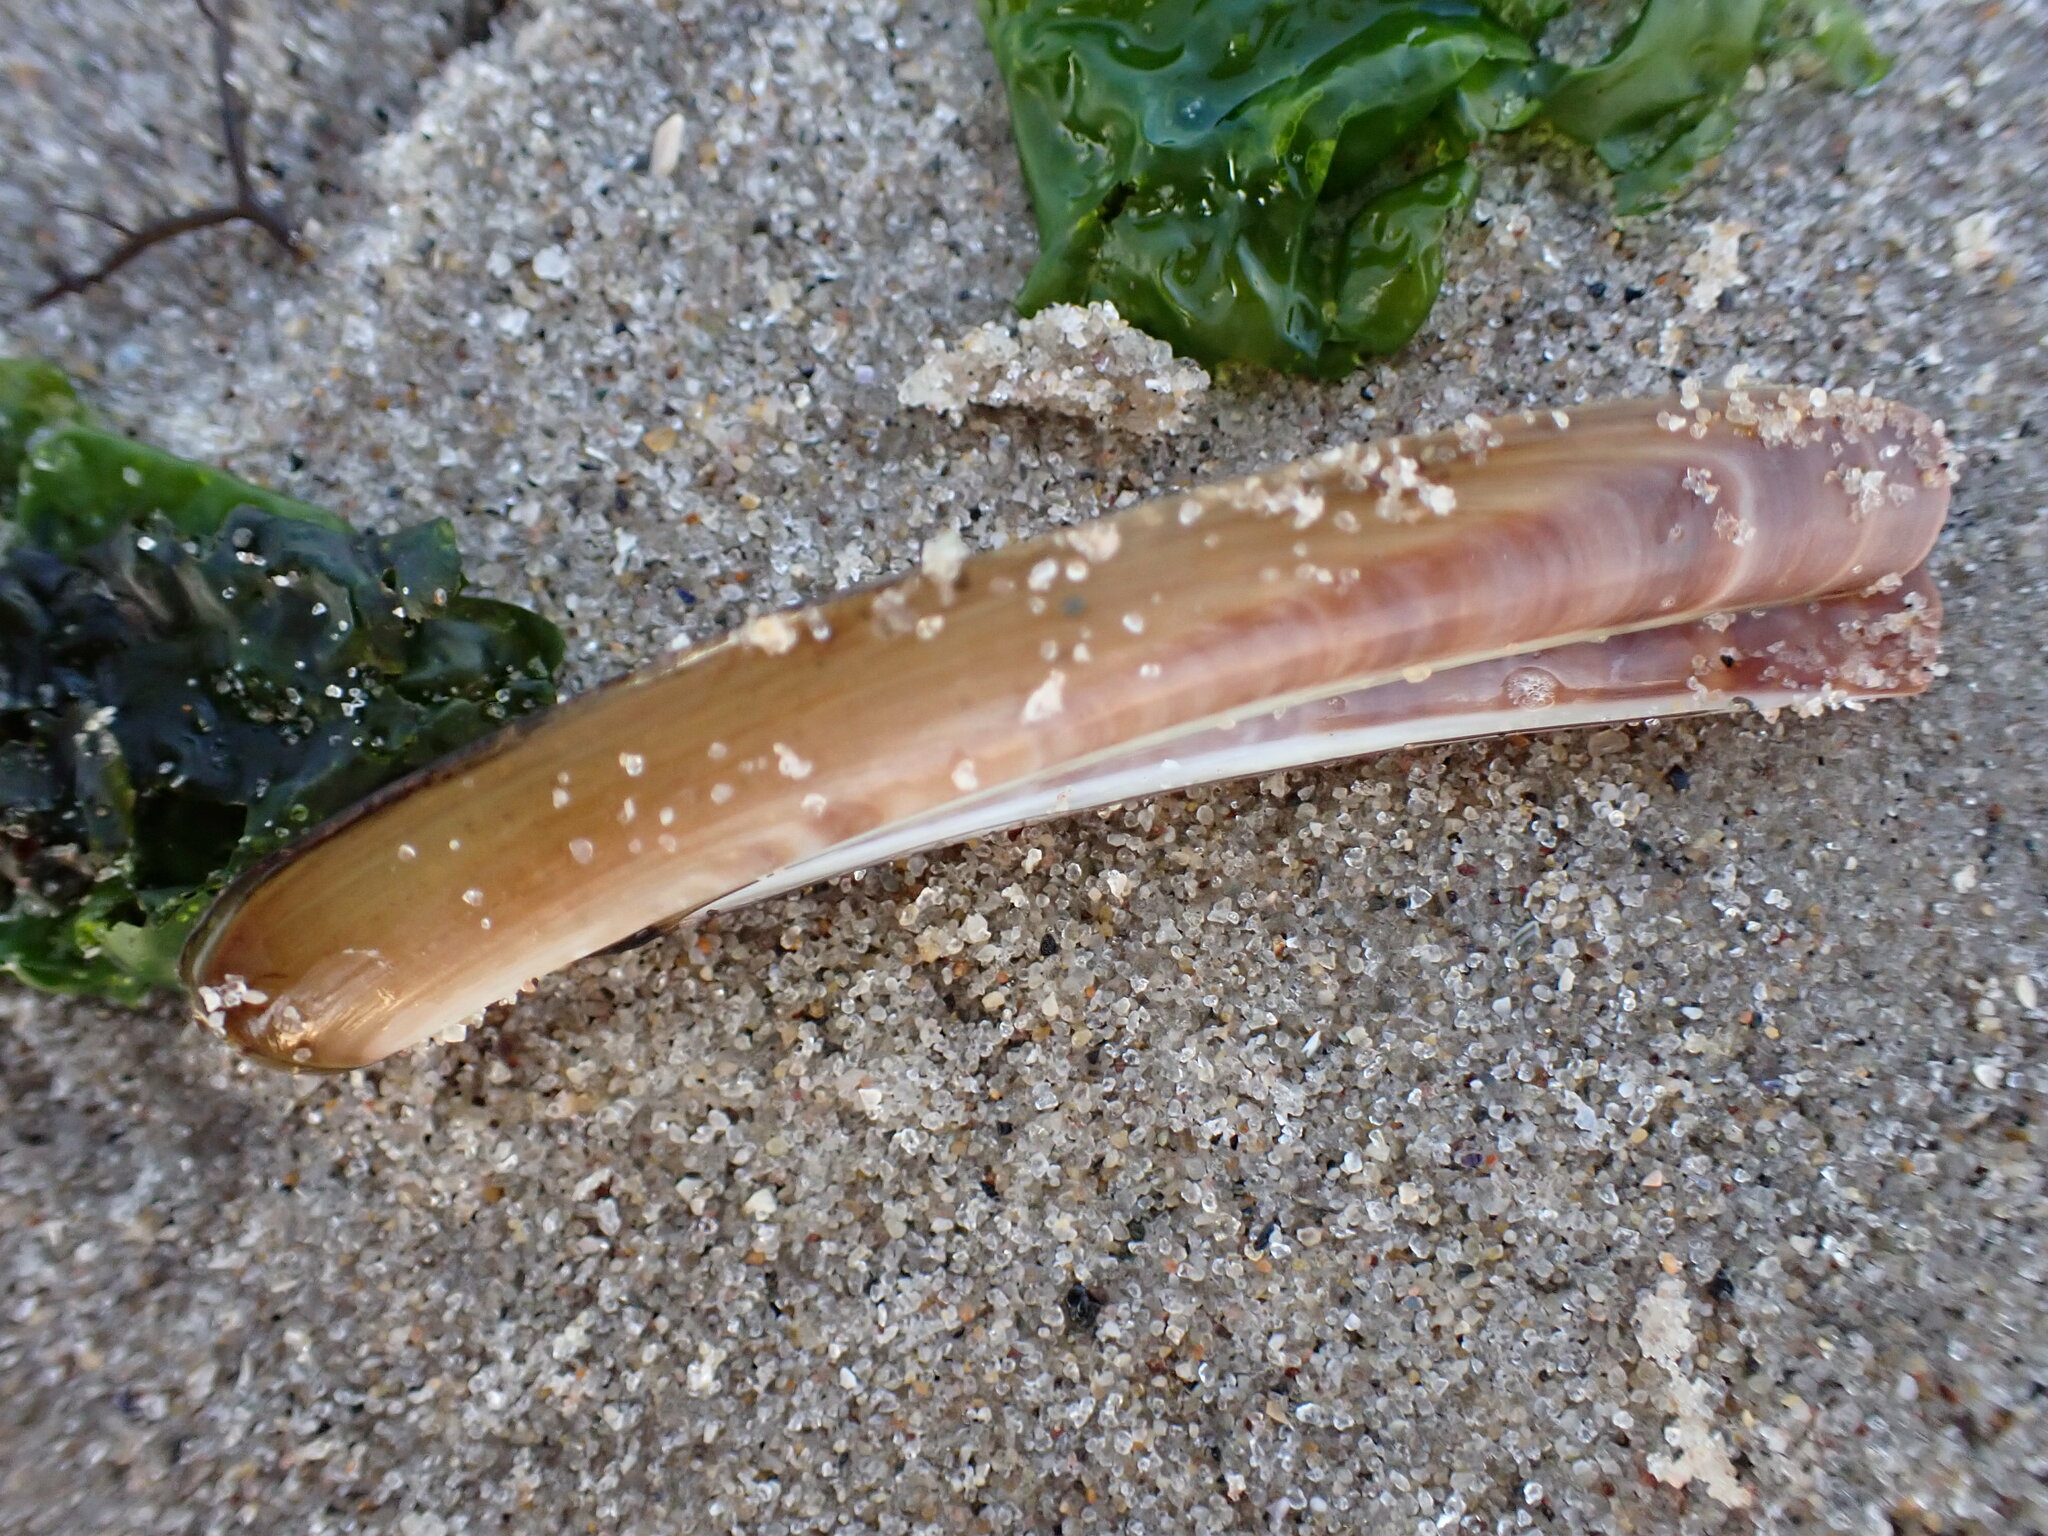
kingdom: Animalia
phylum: Mollusca
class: Bivalvia
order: Adapedonta
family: Pharidae
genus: Ensis
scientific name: Ensis leei
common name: American jack knife clam
